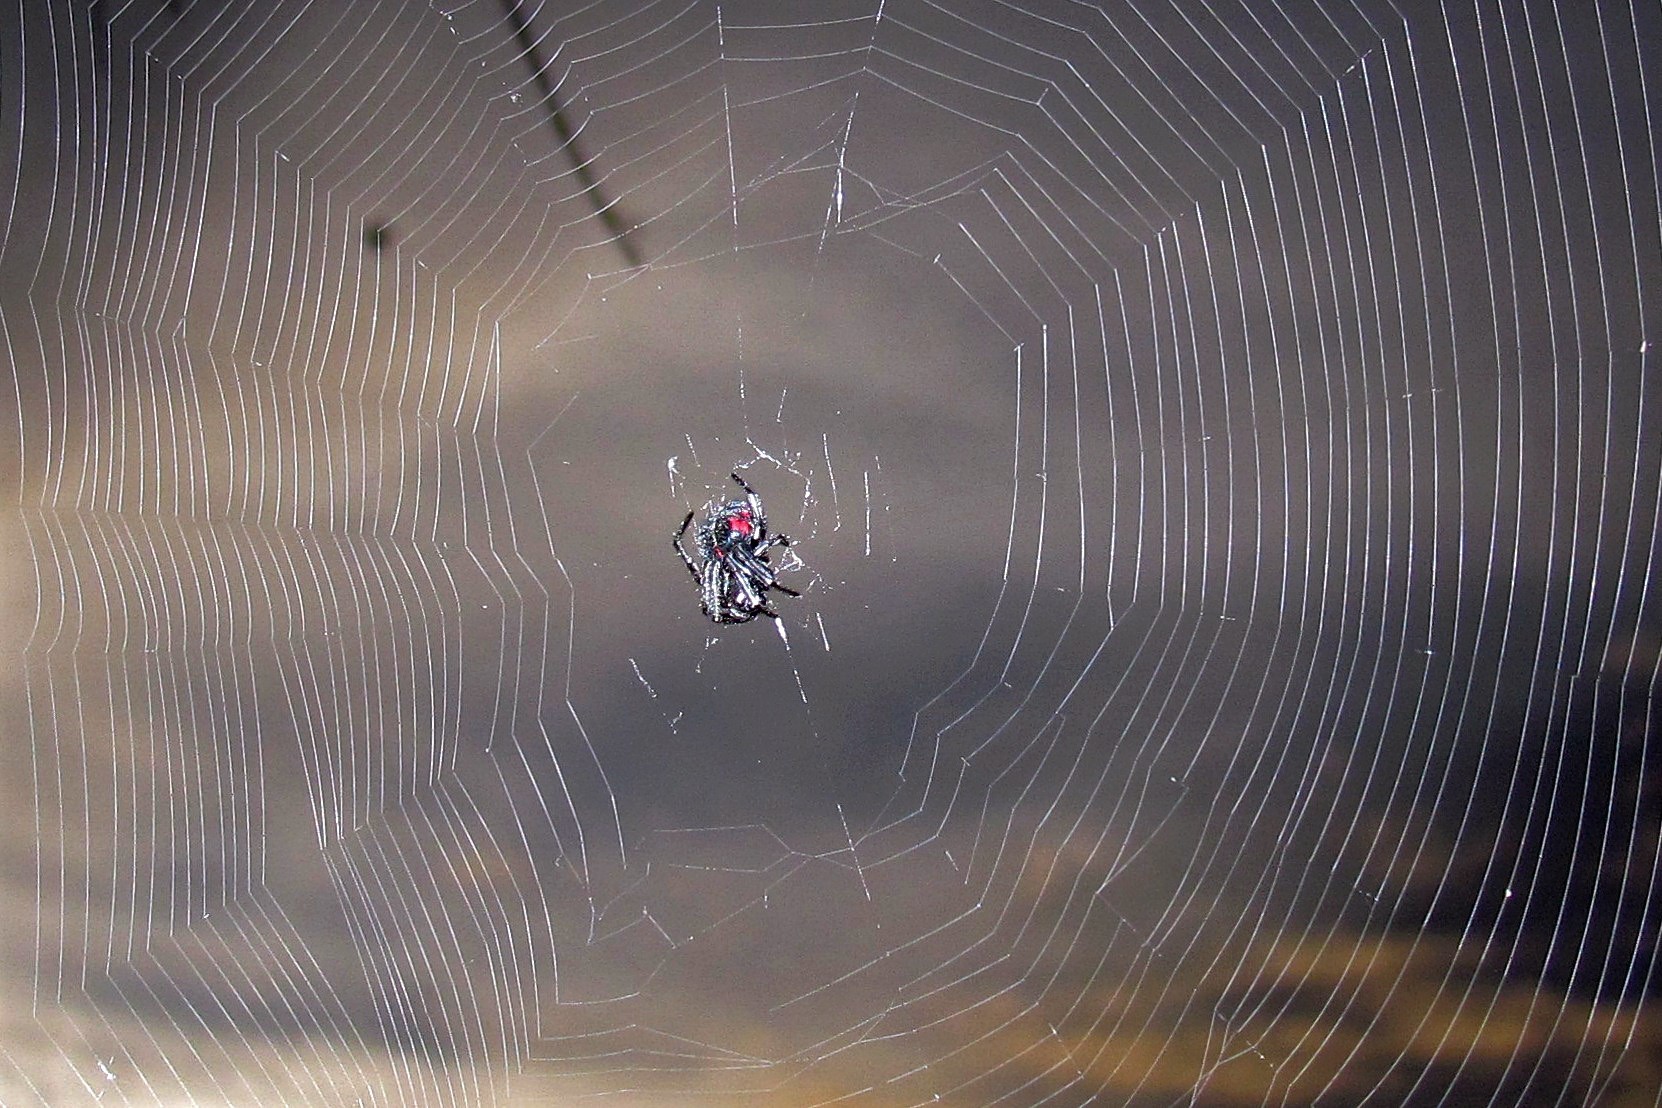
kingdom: Animalia
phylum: Arthropoda
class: Arachnida
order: Araneae
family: Araneidae
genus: Parawixia
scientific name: Parawixia bistriata
